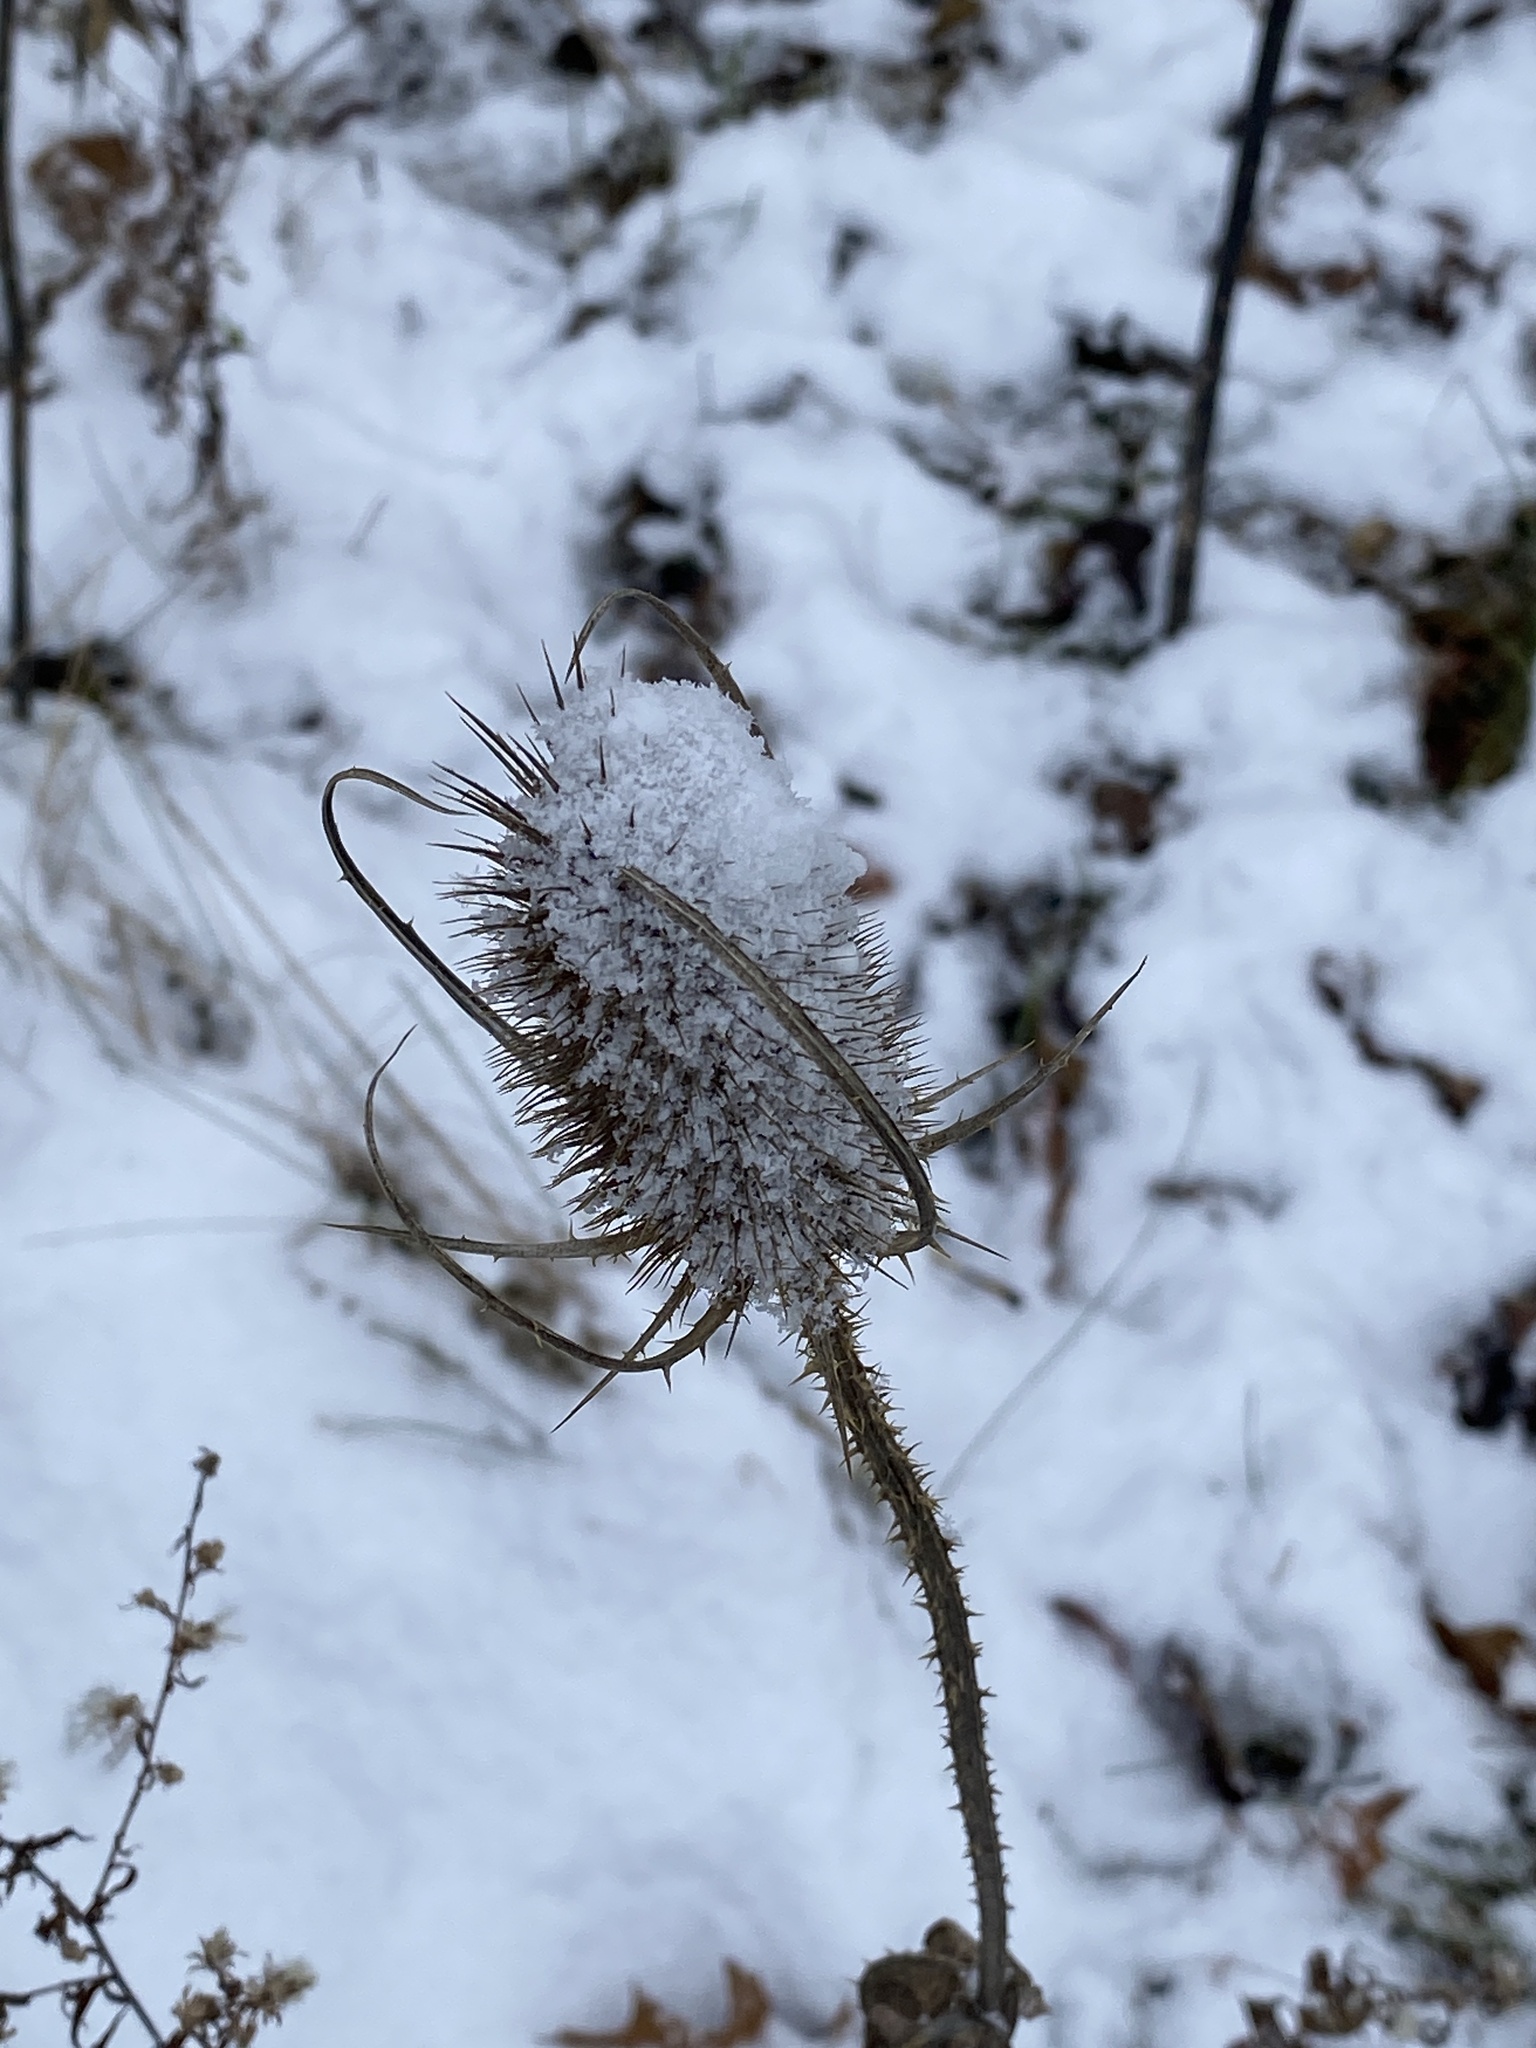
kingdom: Plantae
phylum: Tracheophyta
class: Magnoliopsida
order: Dipsacales
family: Caprifoliaceae
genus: Dipsacus
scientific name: Dipsacus fullonum
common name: Teasel
